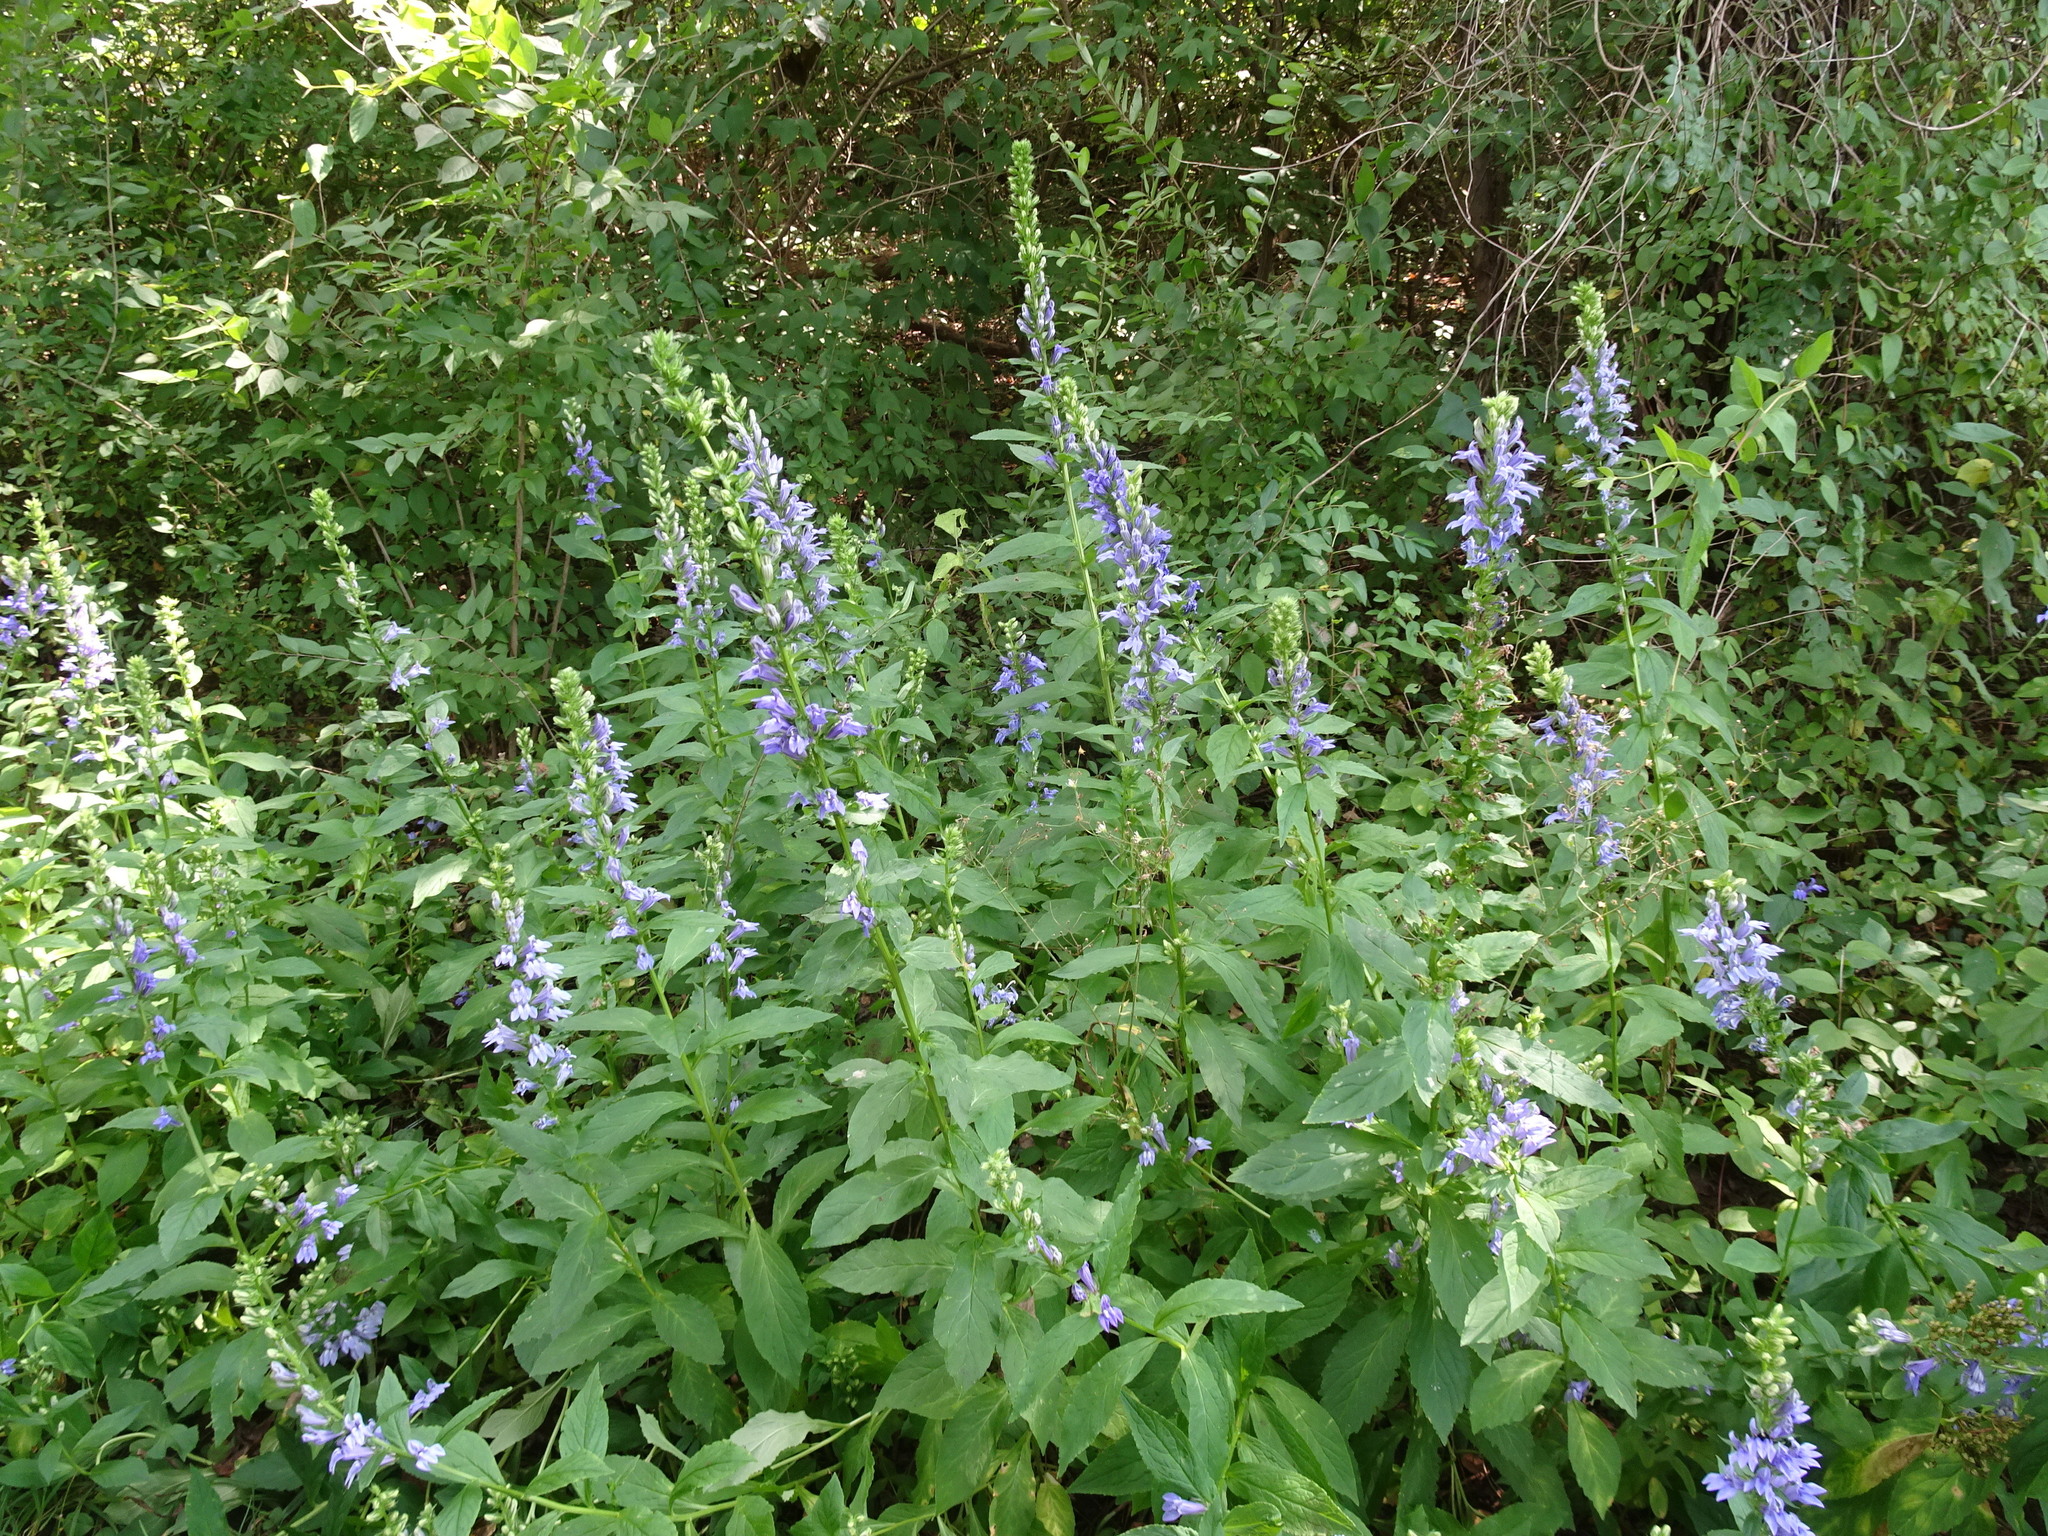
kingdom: Plantae
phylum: Tracheophyta
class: Magnoliopsida
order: Asterales
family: Campanulaceae
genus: Lobelia
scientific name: Lobelia siphilitica
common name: Great lobelia
